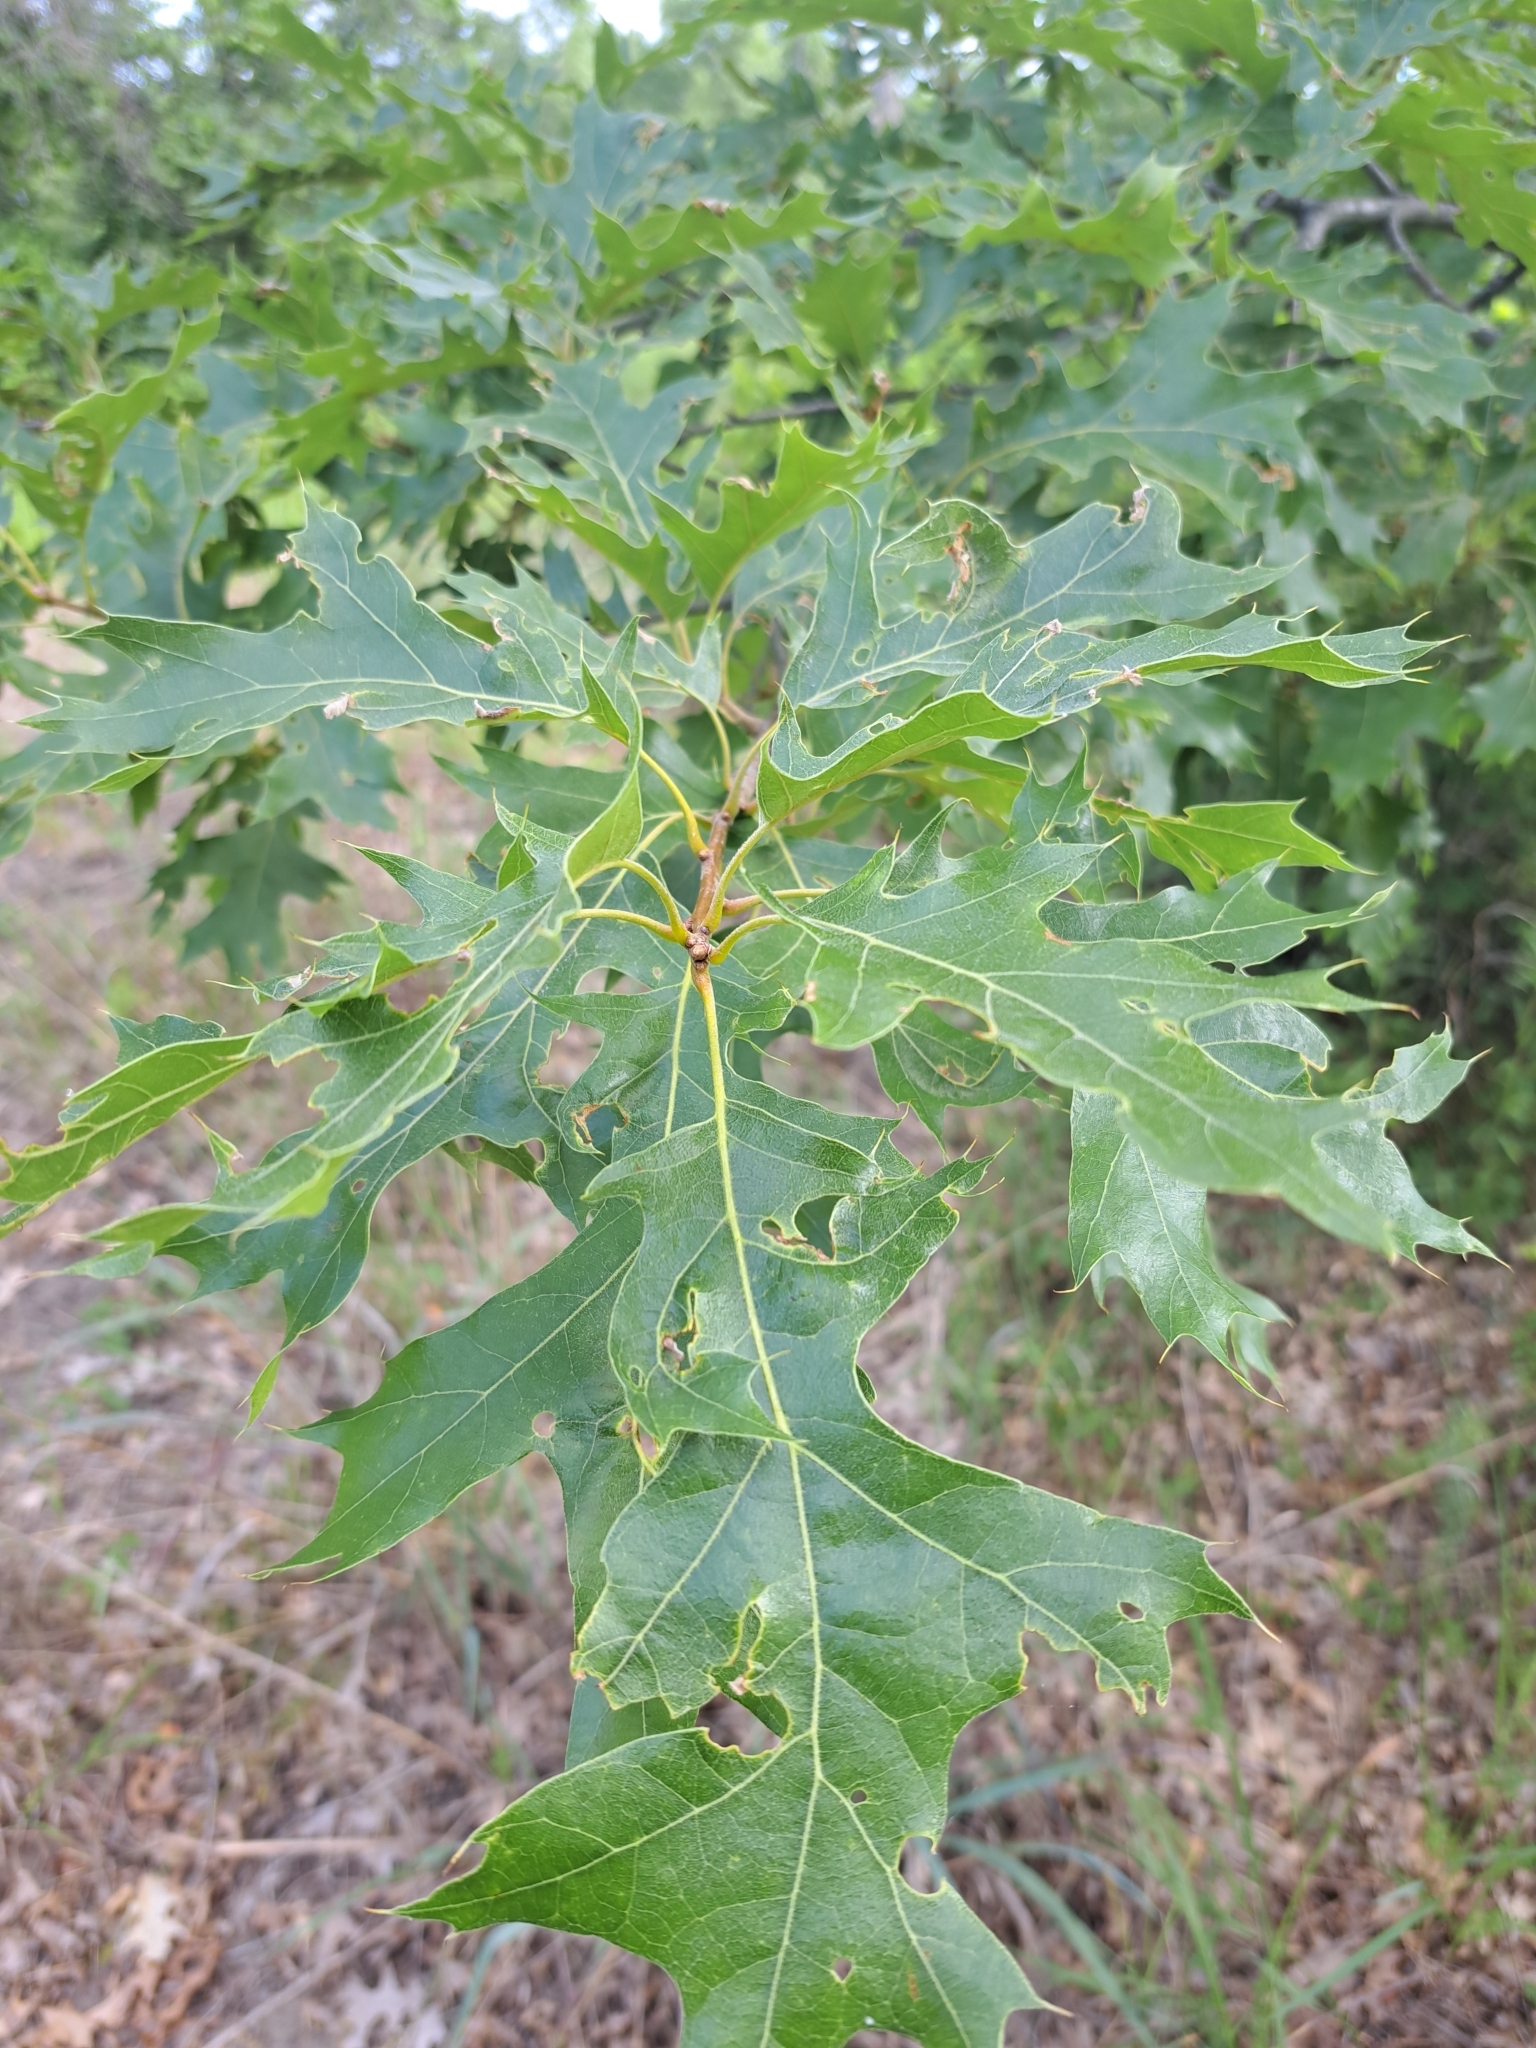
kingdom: Plantae
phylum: Tracheophyta
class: Magnoliopsida
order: Fagales
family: Fagaceae
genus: Quercus
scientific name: Quercus velutina
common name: Black oak
